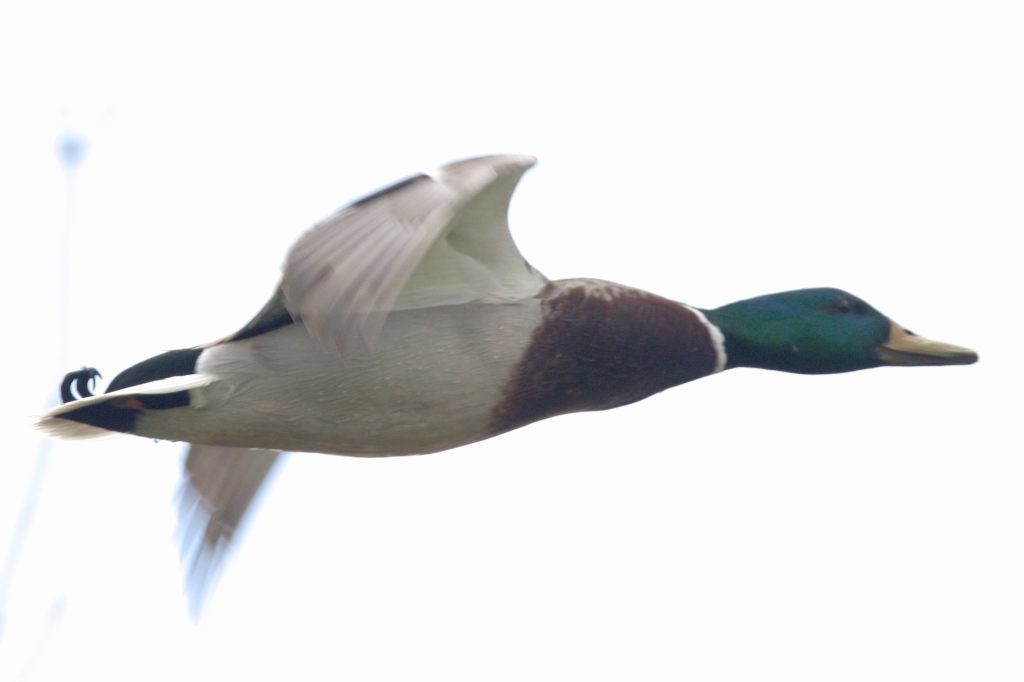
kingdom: Animalia
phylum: Chordata
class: Aves
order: Anseriformes
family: Anatidae
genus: Anas
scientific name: Anas platyrhynchos
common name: Mallard
